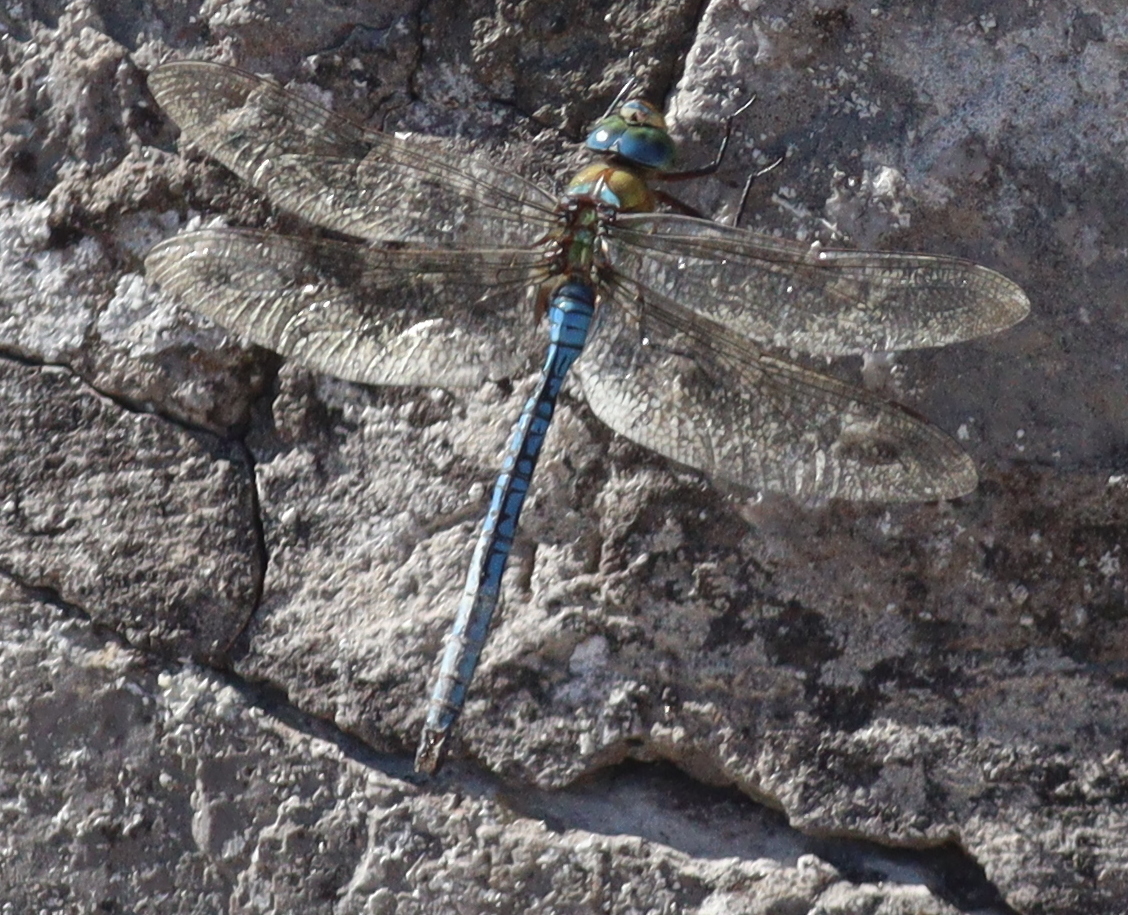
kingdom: Animalia
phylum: Arthropoda
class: Insecta
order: Odonata
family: Aeshnidae
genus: Anax
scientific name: Anax imperator
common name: Emperor dragonfly
